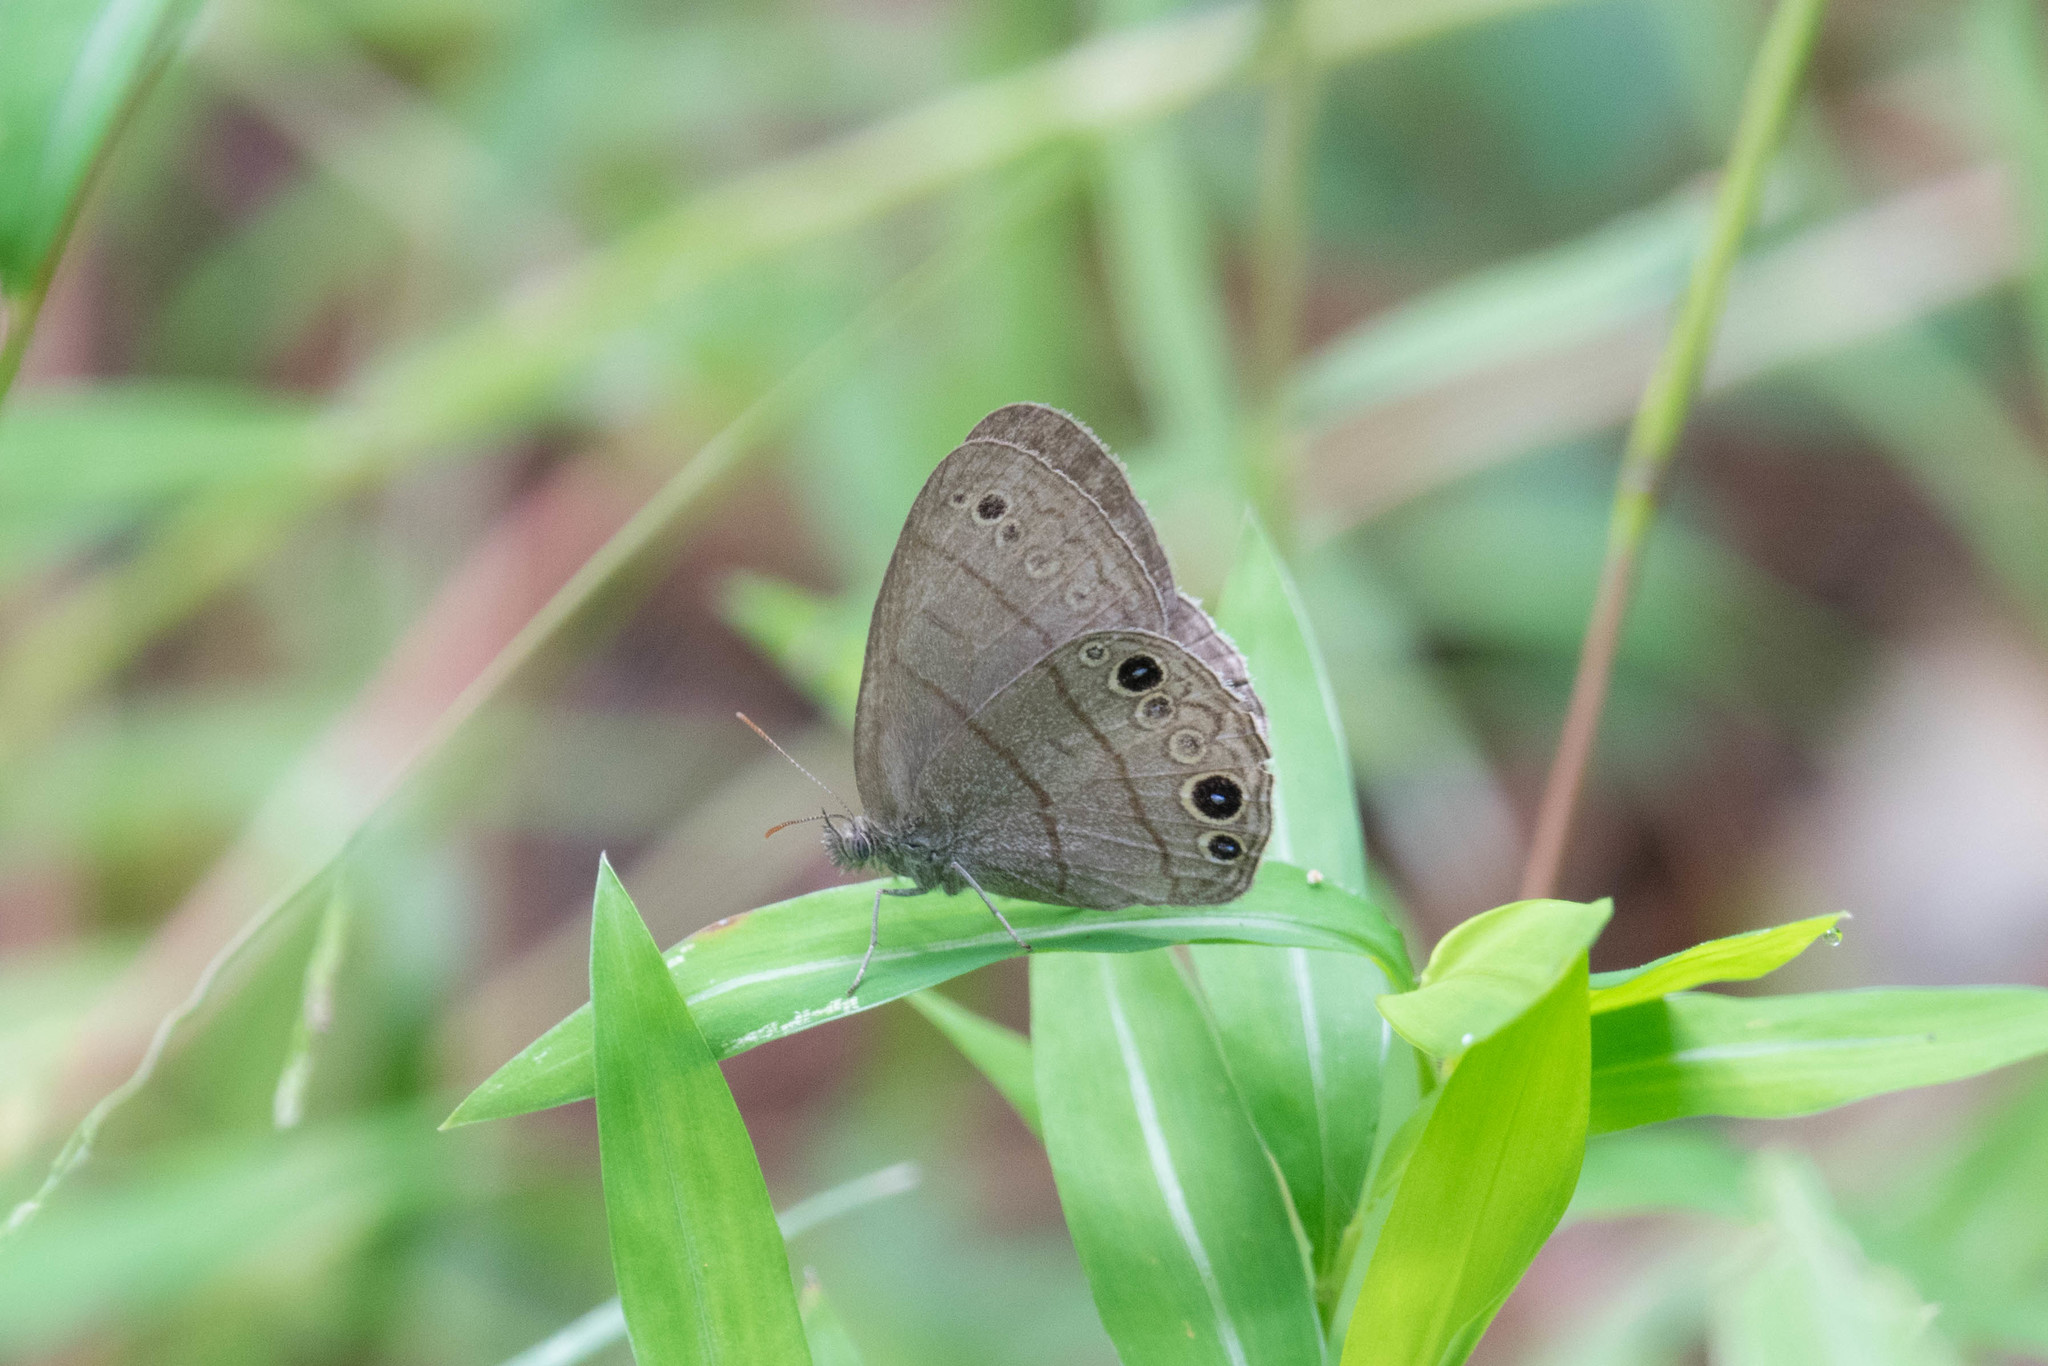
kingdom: Animalia
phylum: Arthropoda
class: Insecta
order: Lepidoptera
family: Nymphalidae
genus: Hermeuptychia
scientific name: Hermeuptychia hermes
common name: Hermes satyr
